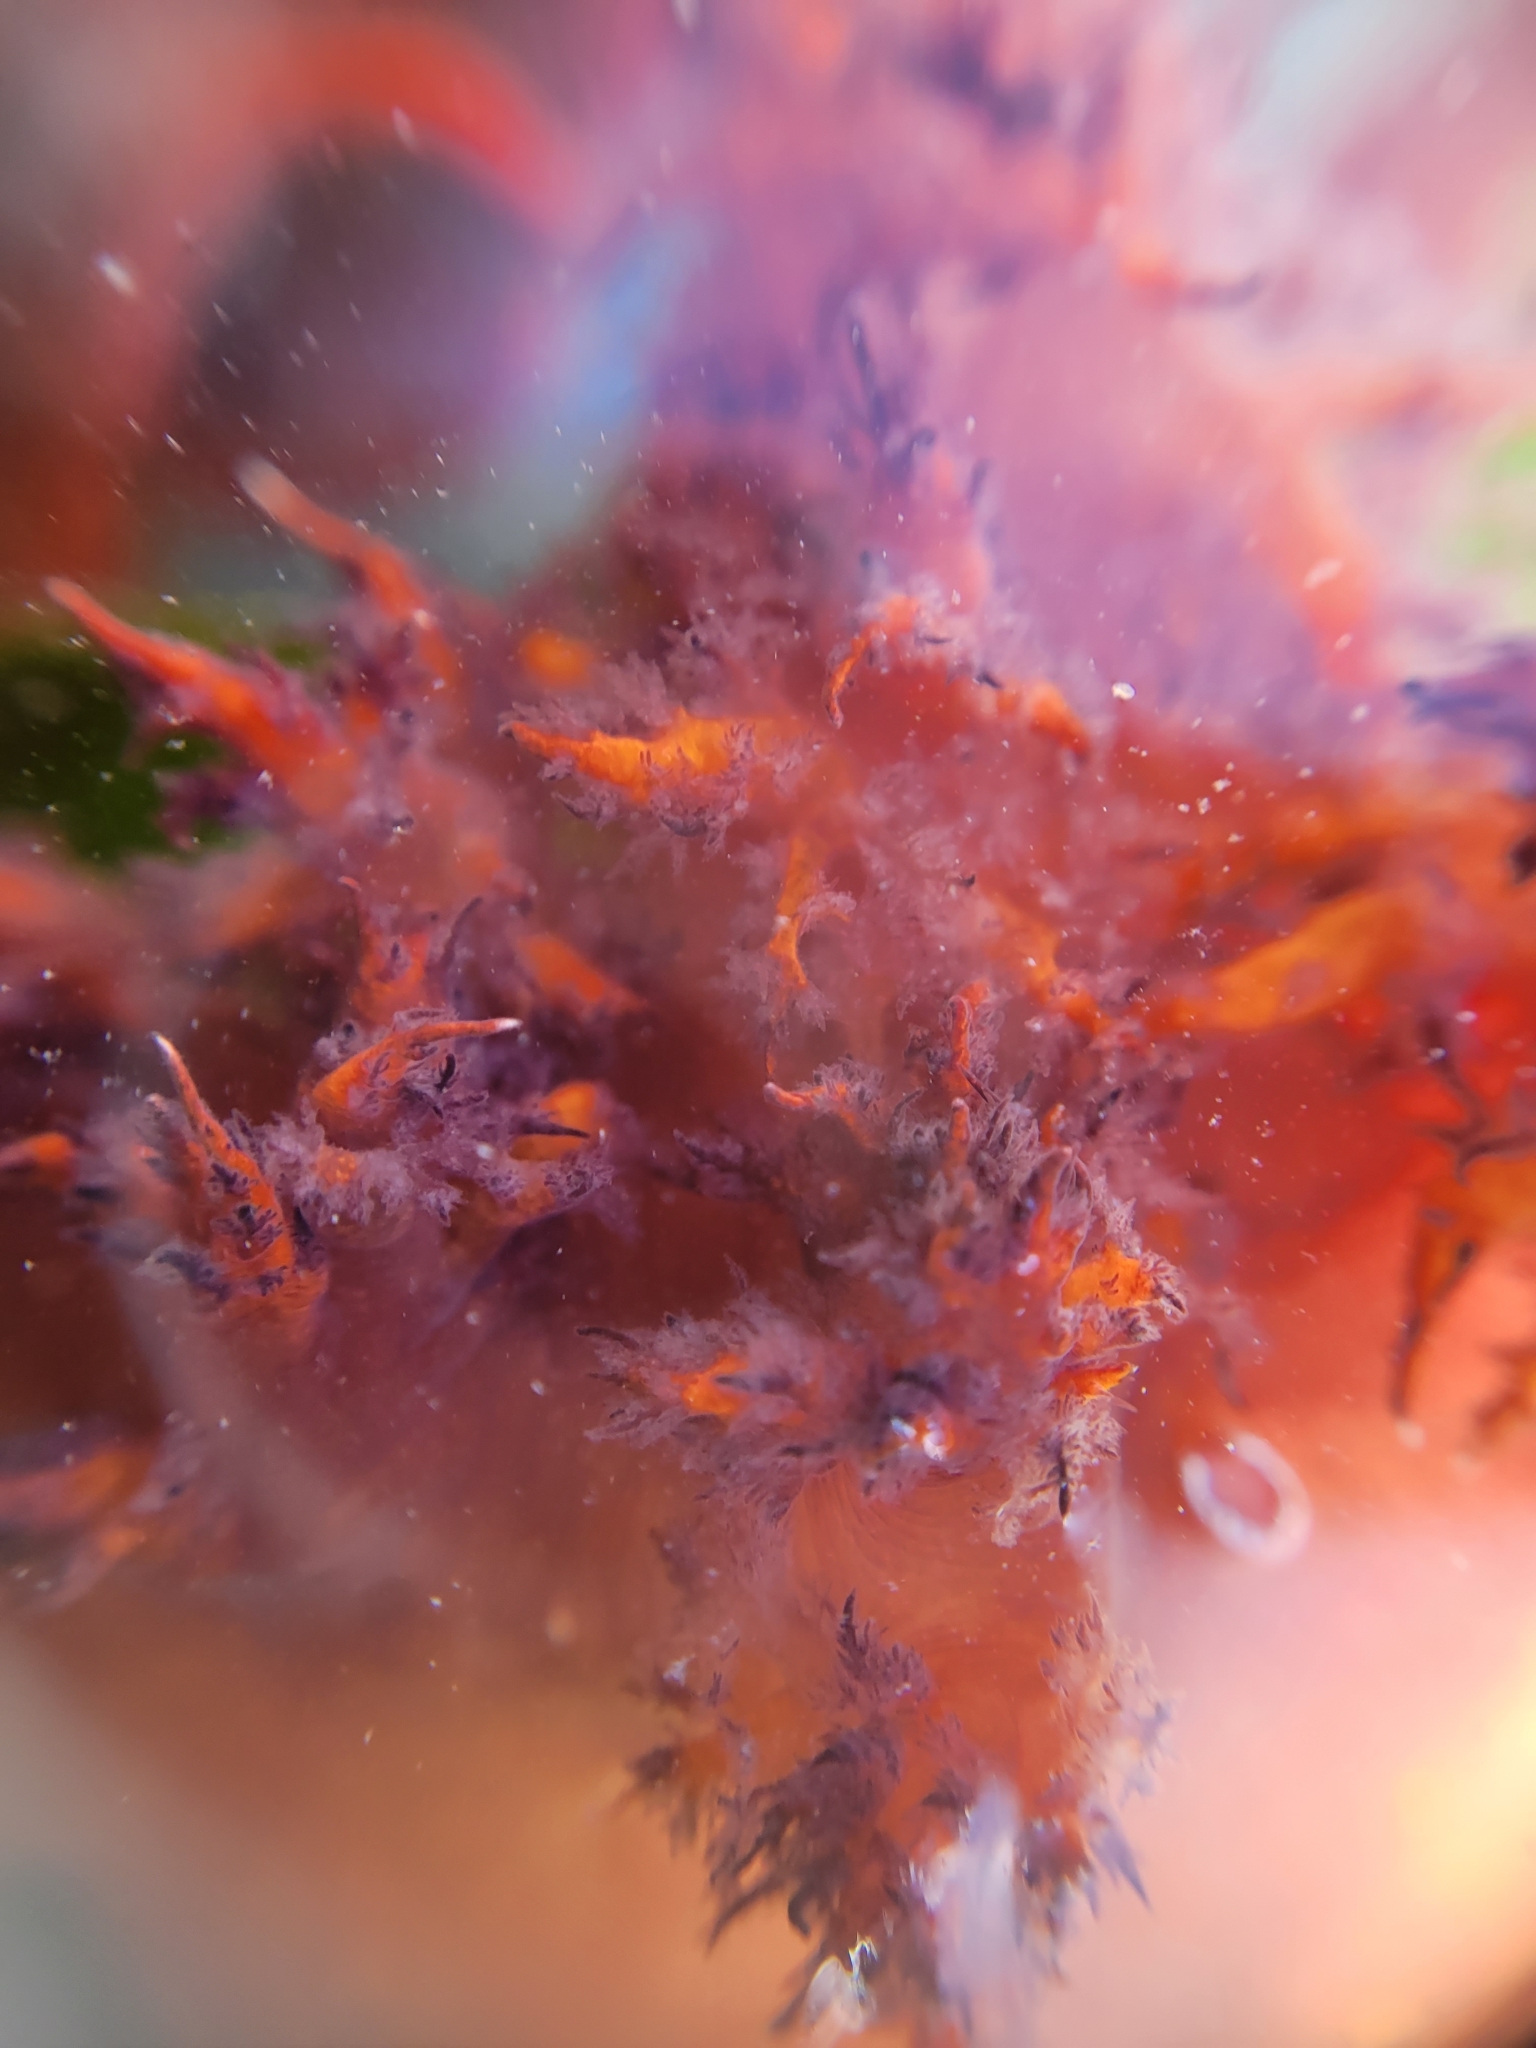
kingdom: Animalia
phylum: Mollusca
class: Gastropoda
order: Nudibranchia
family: Dendronotidae
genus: Dendronotus
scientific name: Dendronotus iris
